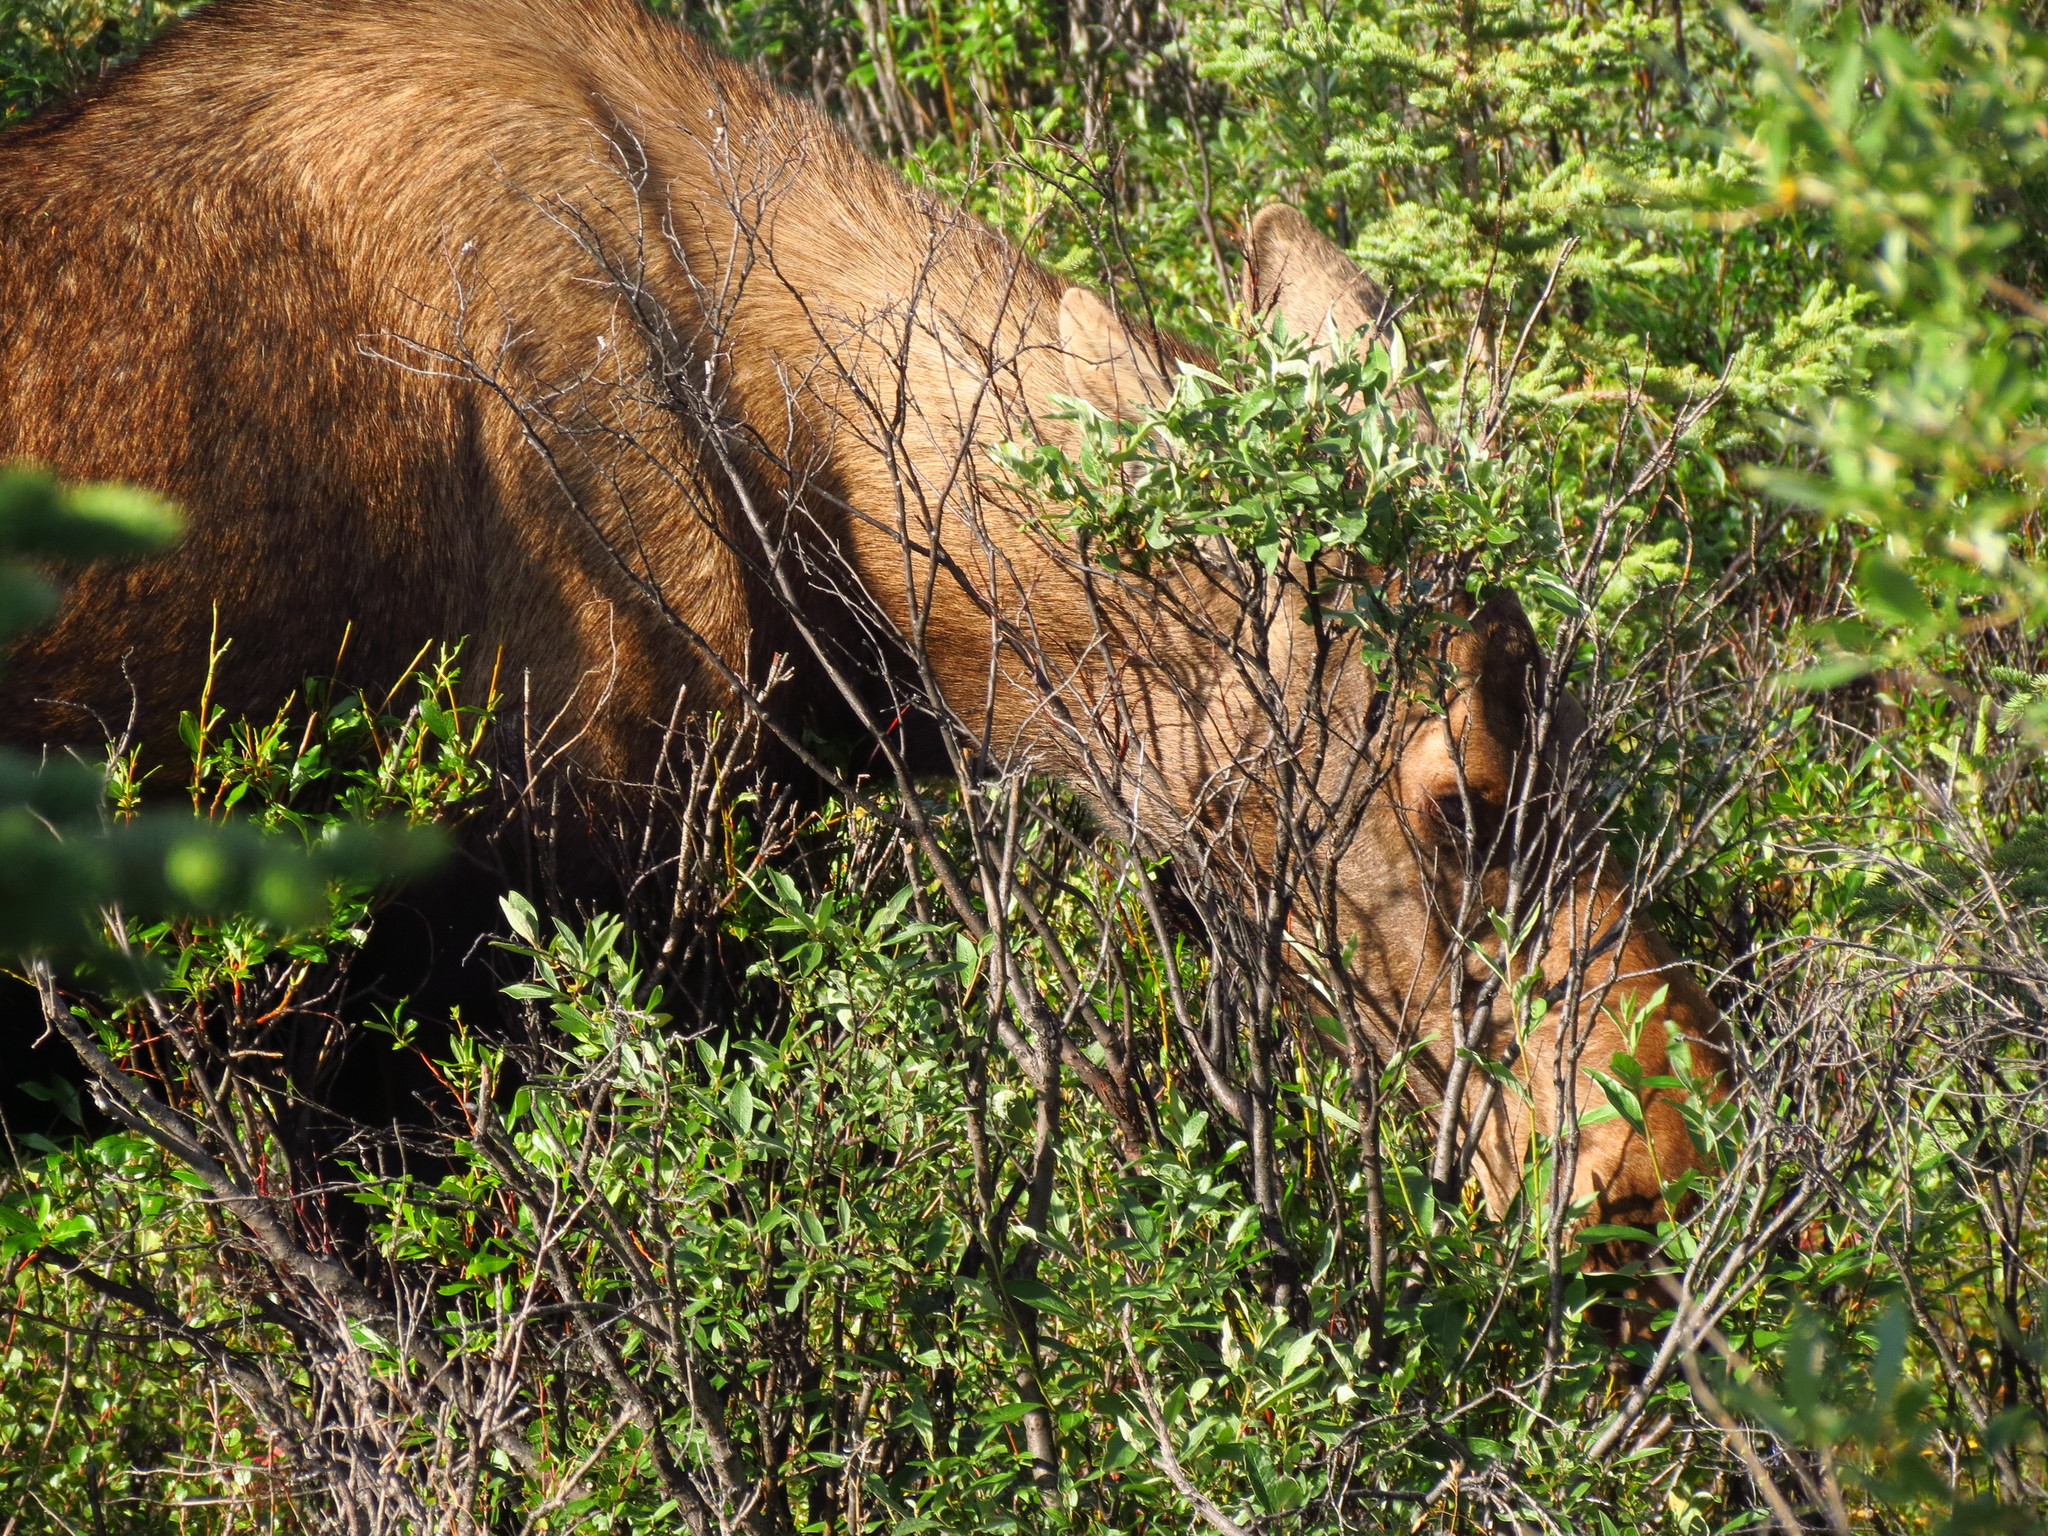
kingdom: Animalia
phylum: Chordata
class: Mammalia
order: Artiodactyla
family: Cervidae
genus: Alces
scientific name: Alces alces
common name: Moose
